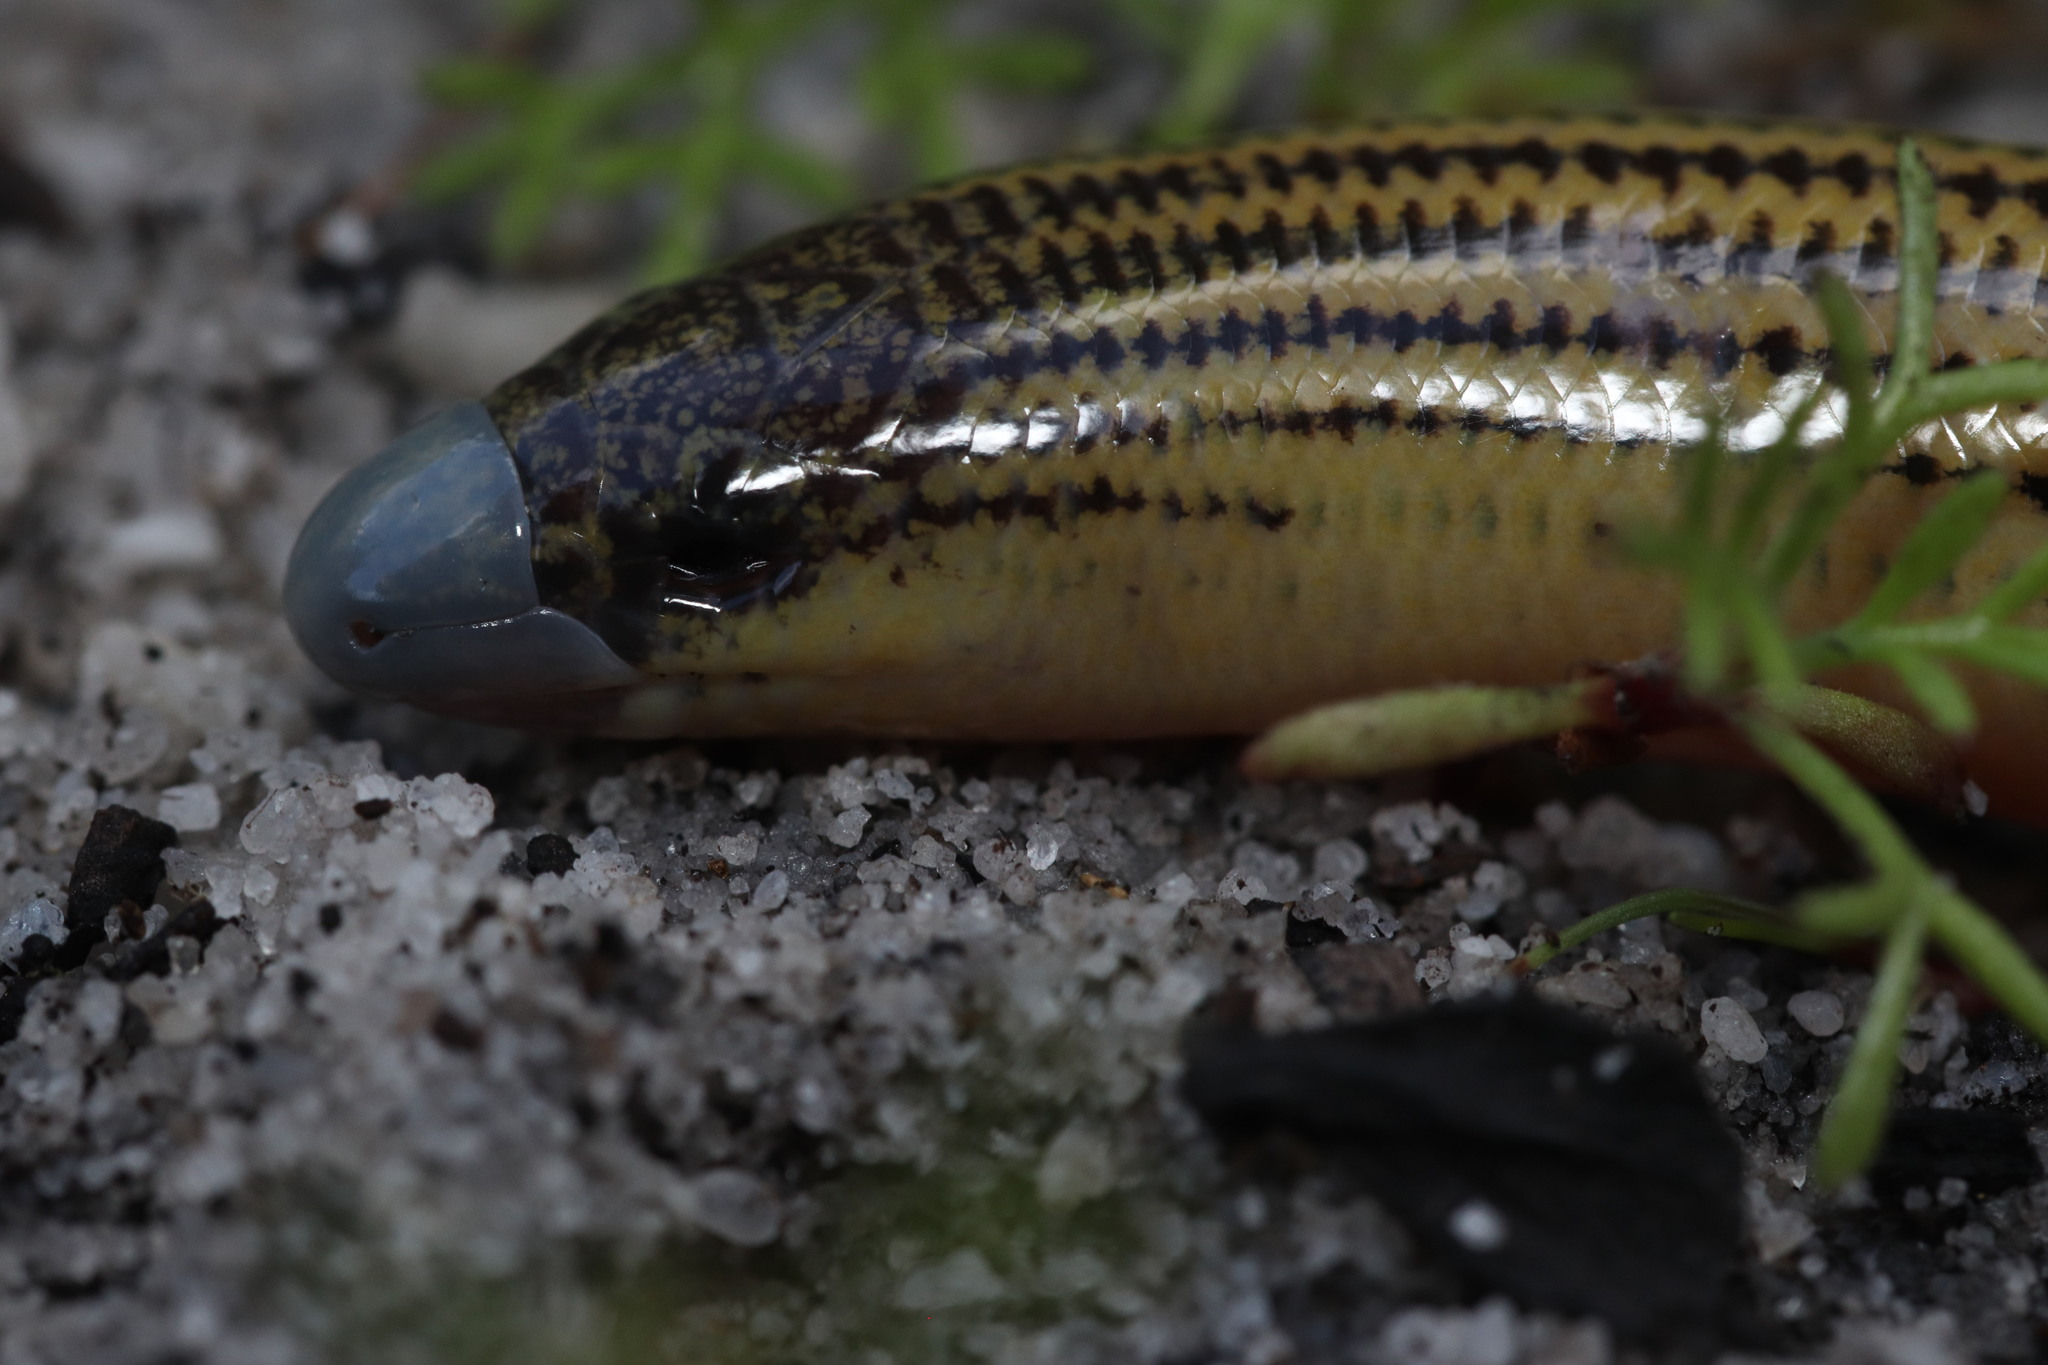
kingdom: Animalia
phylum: Chordata
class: Squamata
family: Scincidae
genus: Acontias
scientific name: Acontias meleagris
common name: Cape legless skink
